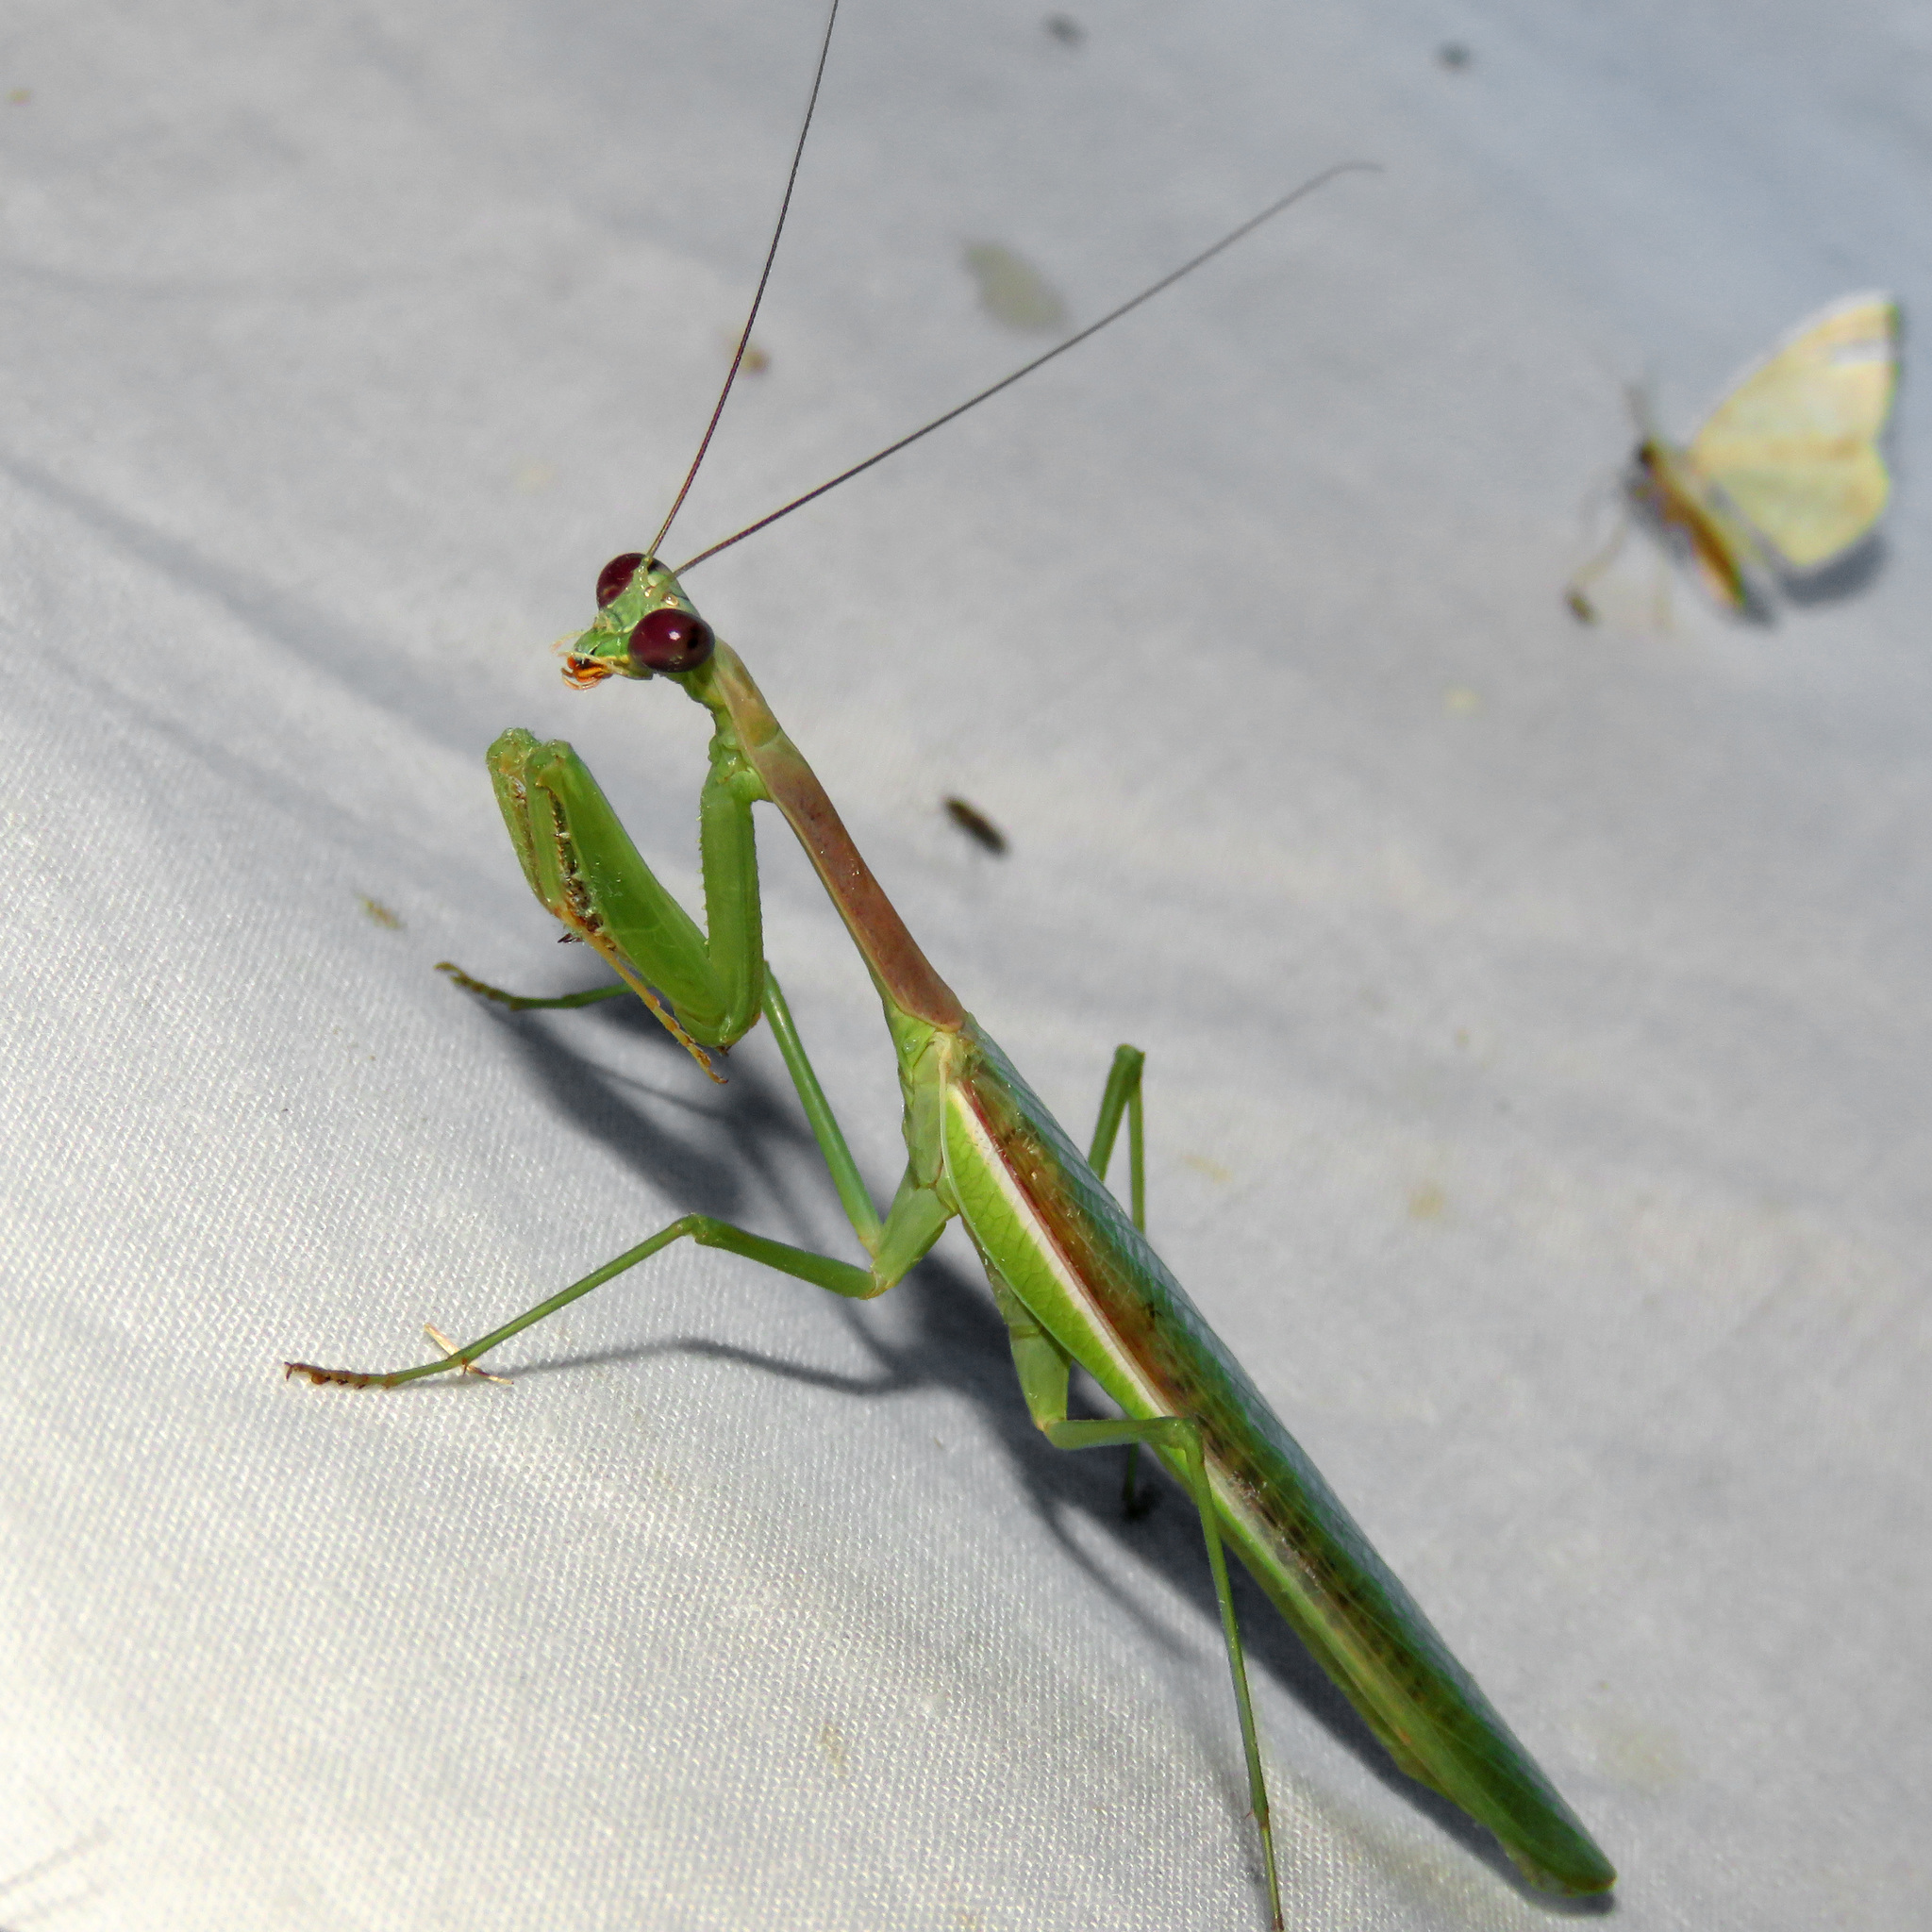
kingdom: Animalia
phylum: Arthropoda
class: Insecta
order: Mantodea
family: Mantidae
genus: Stagmomantis
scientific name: Stagmomantis limbata
